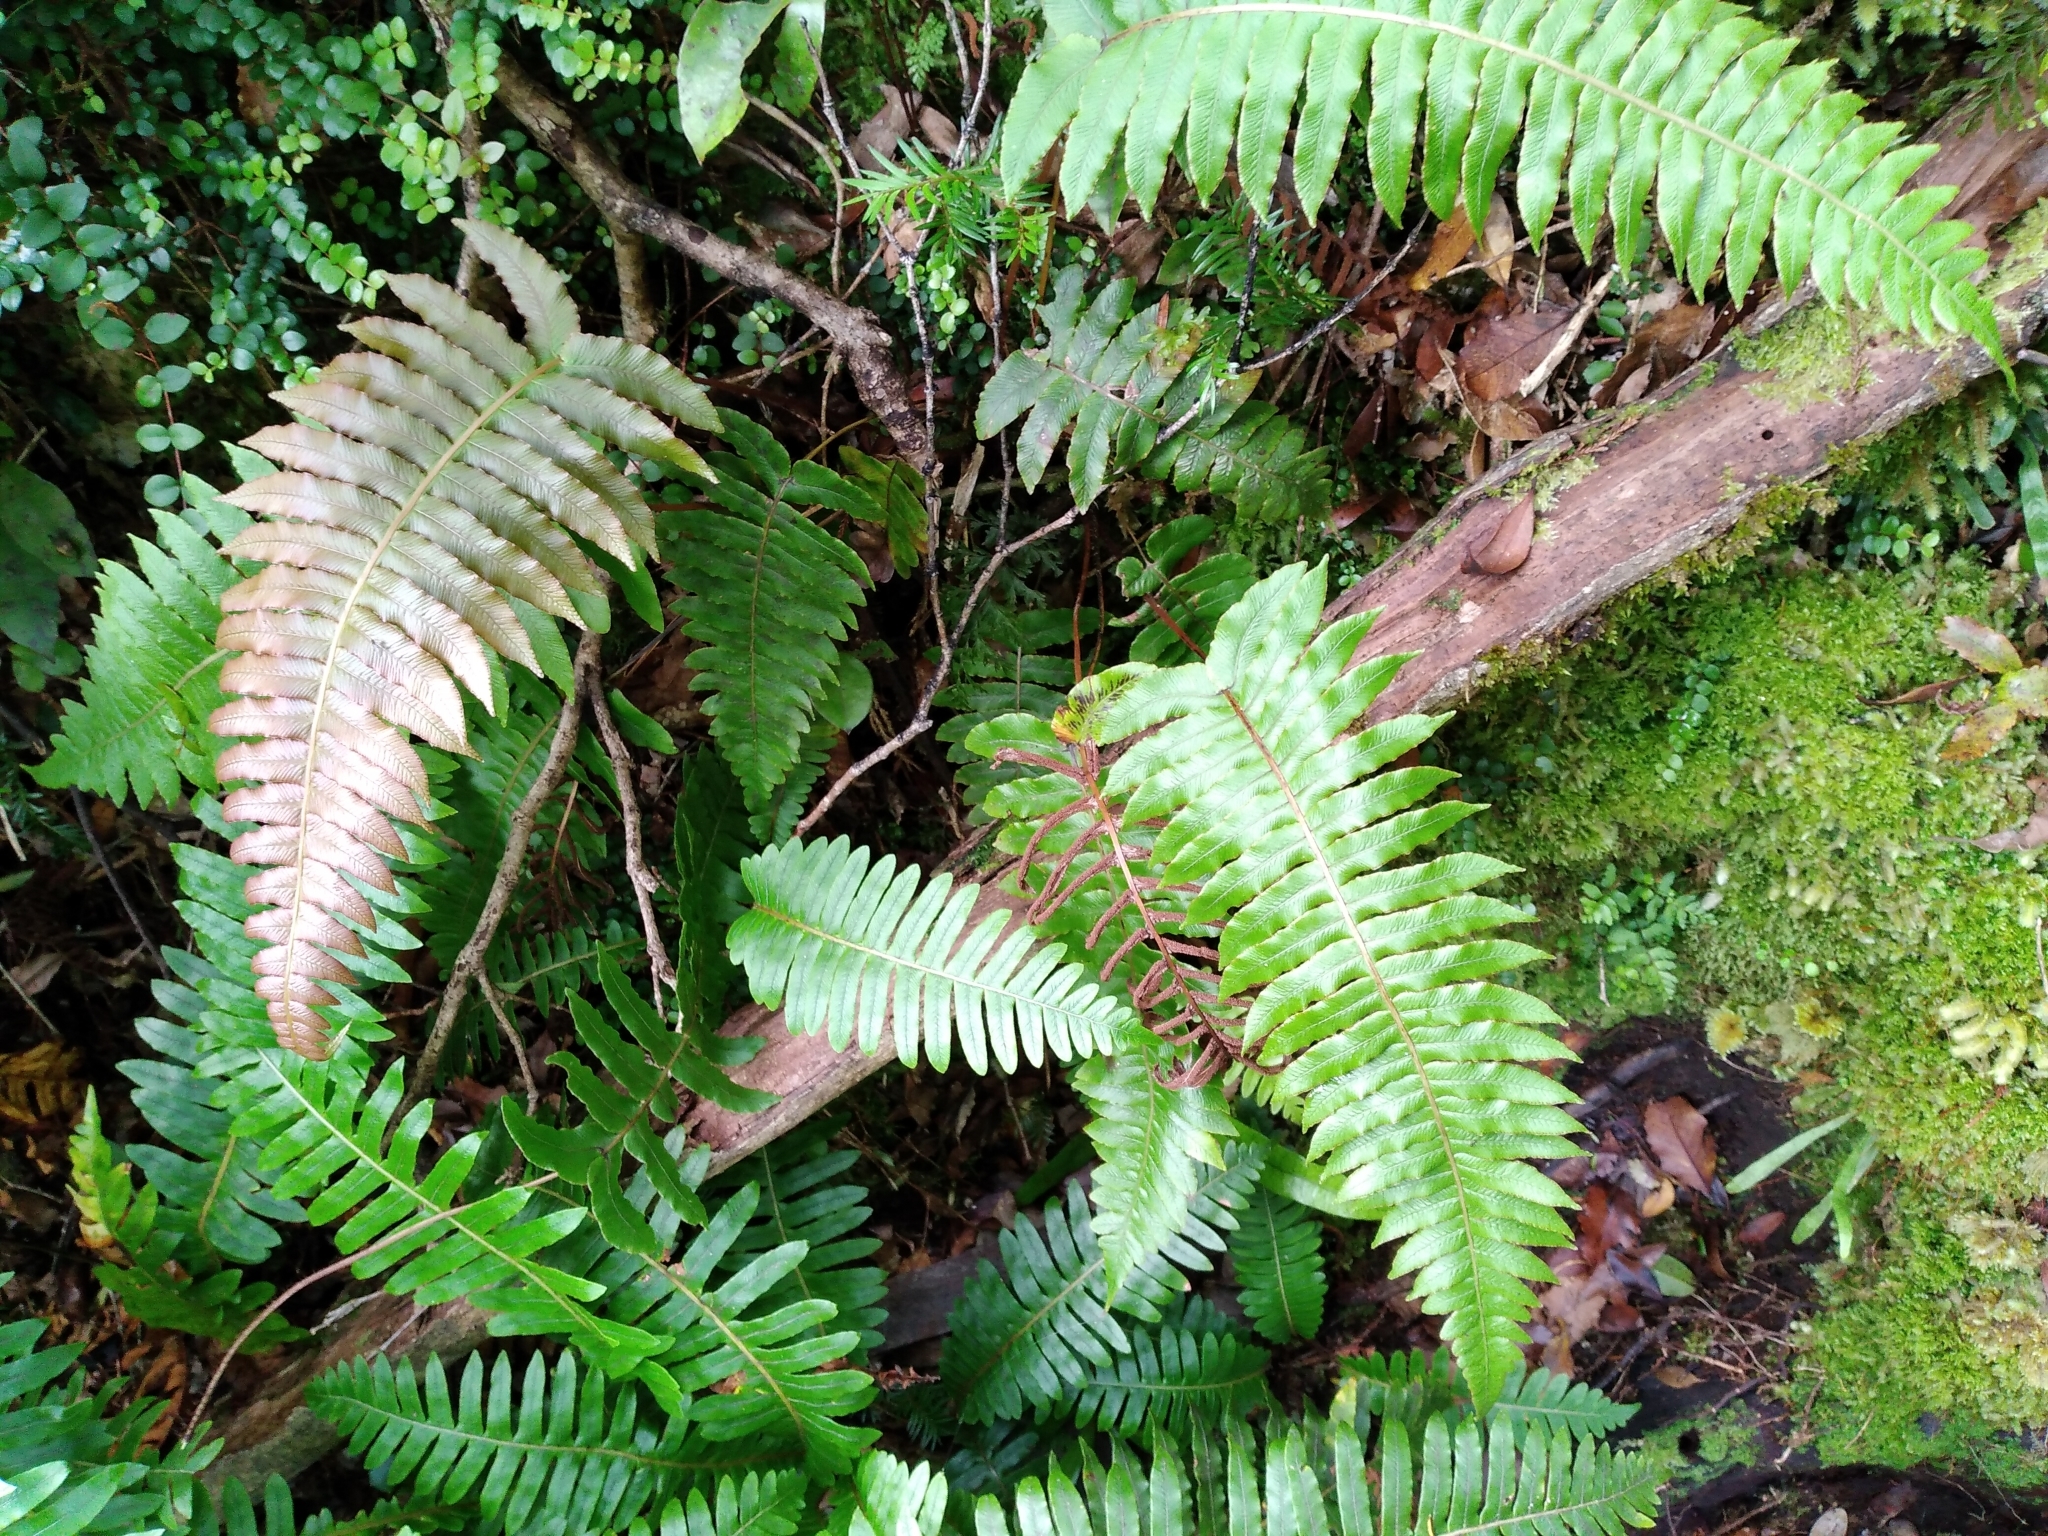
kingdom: Plantae
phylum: Tracheophyta
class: Polypodiopsida
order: Polypodiales
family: Blechnaceae
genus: Cranfillia
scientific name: Cranfillia deltoides
